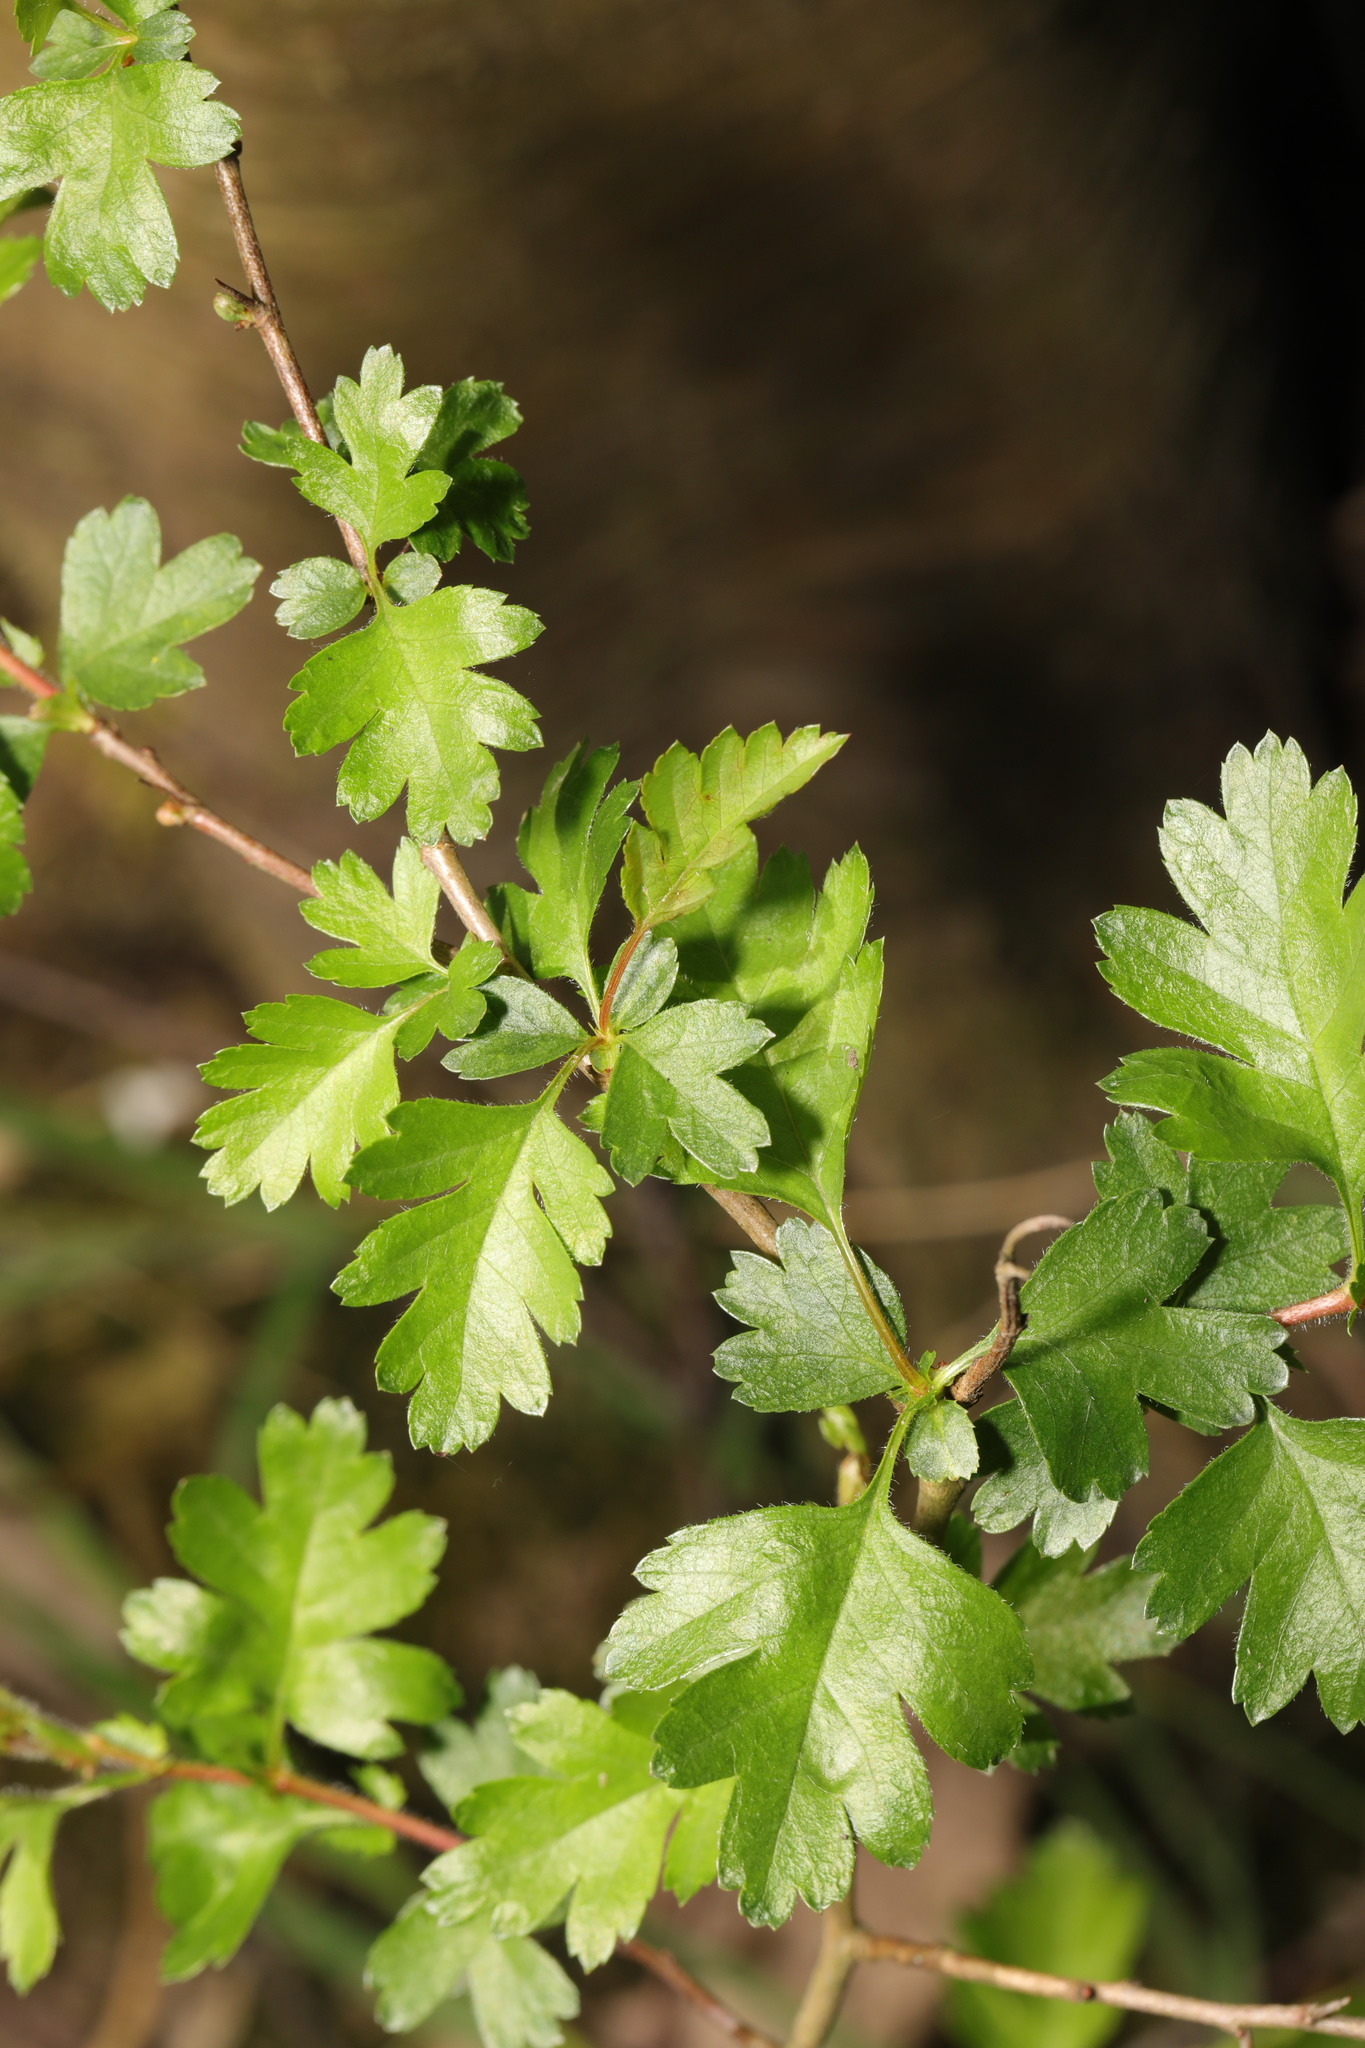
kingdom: Plantae
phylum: Tracheophyta
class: Magnoliopsida
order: Rosales
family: Rosaceae
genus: Crataegus
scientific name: Crataegus monogyna
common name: Hawthorn
